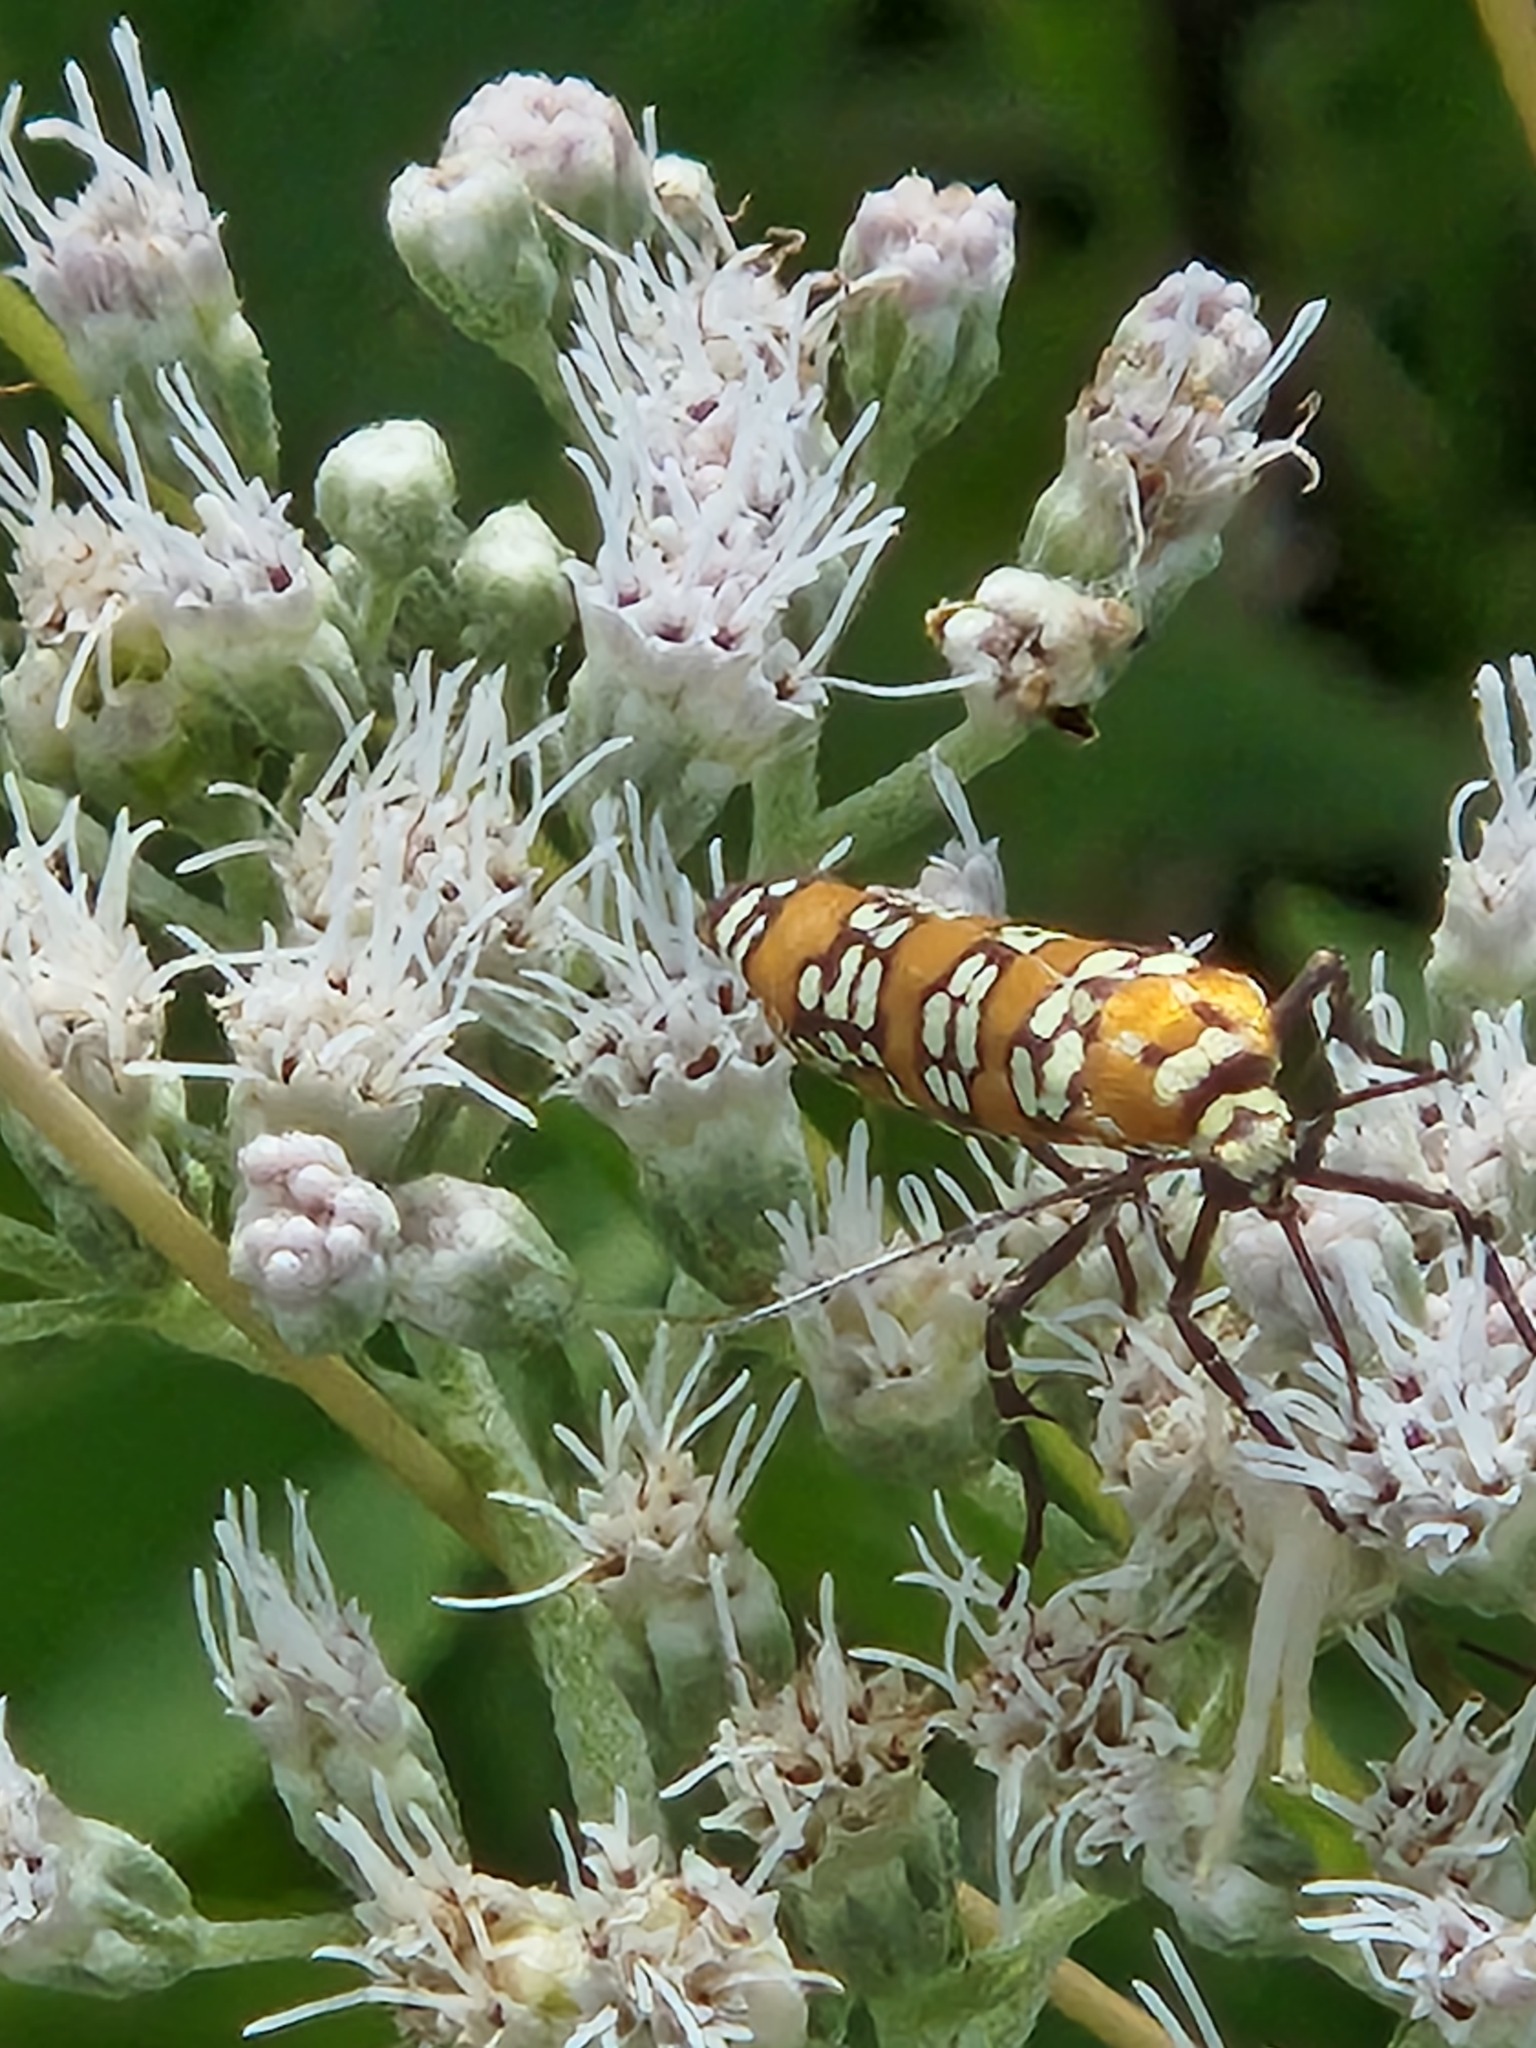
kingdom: Animalia
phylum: Arthropoda
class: Insecta
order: Lepidoptera
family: Attevidae
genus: Atteva
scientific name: Atteva punctella
